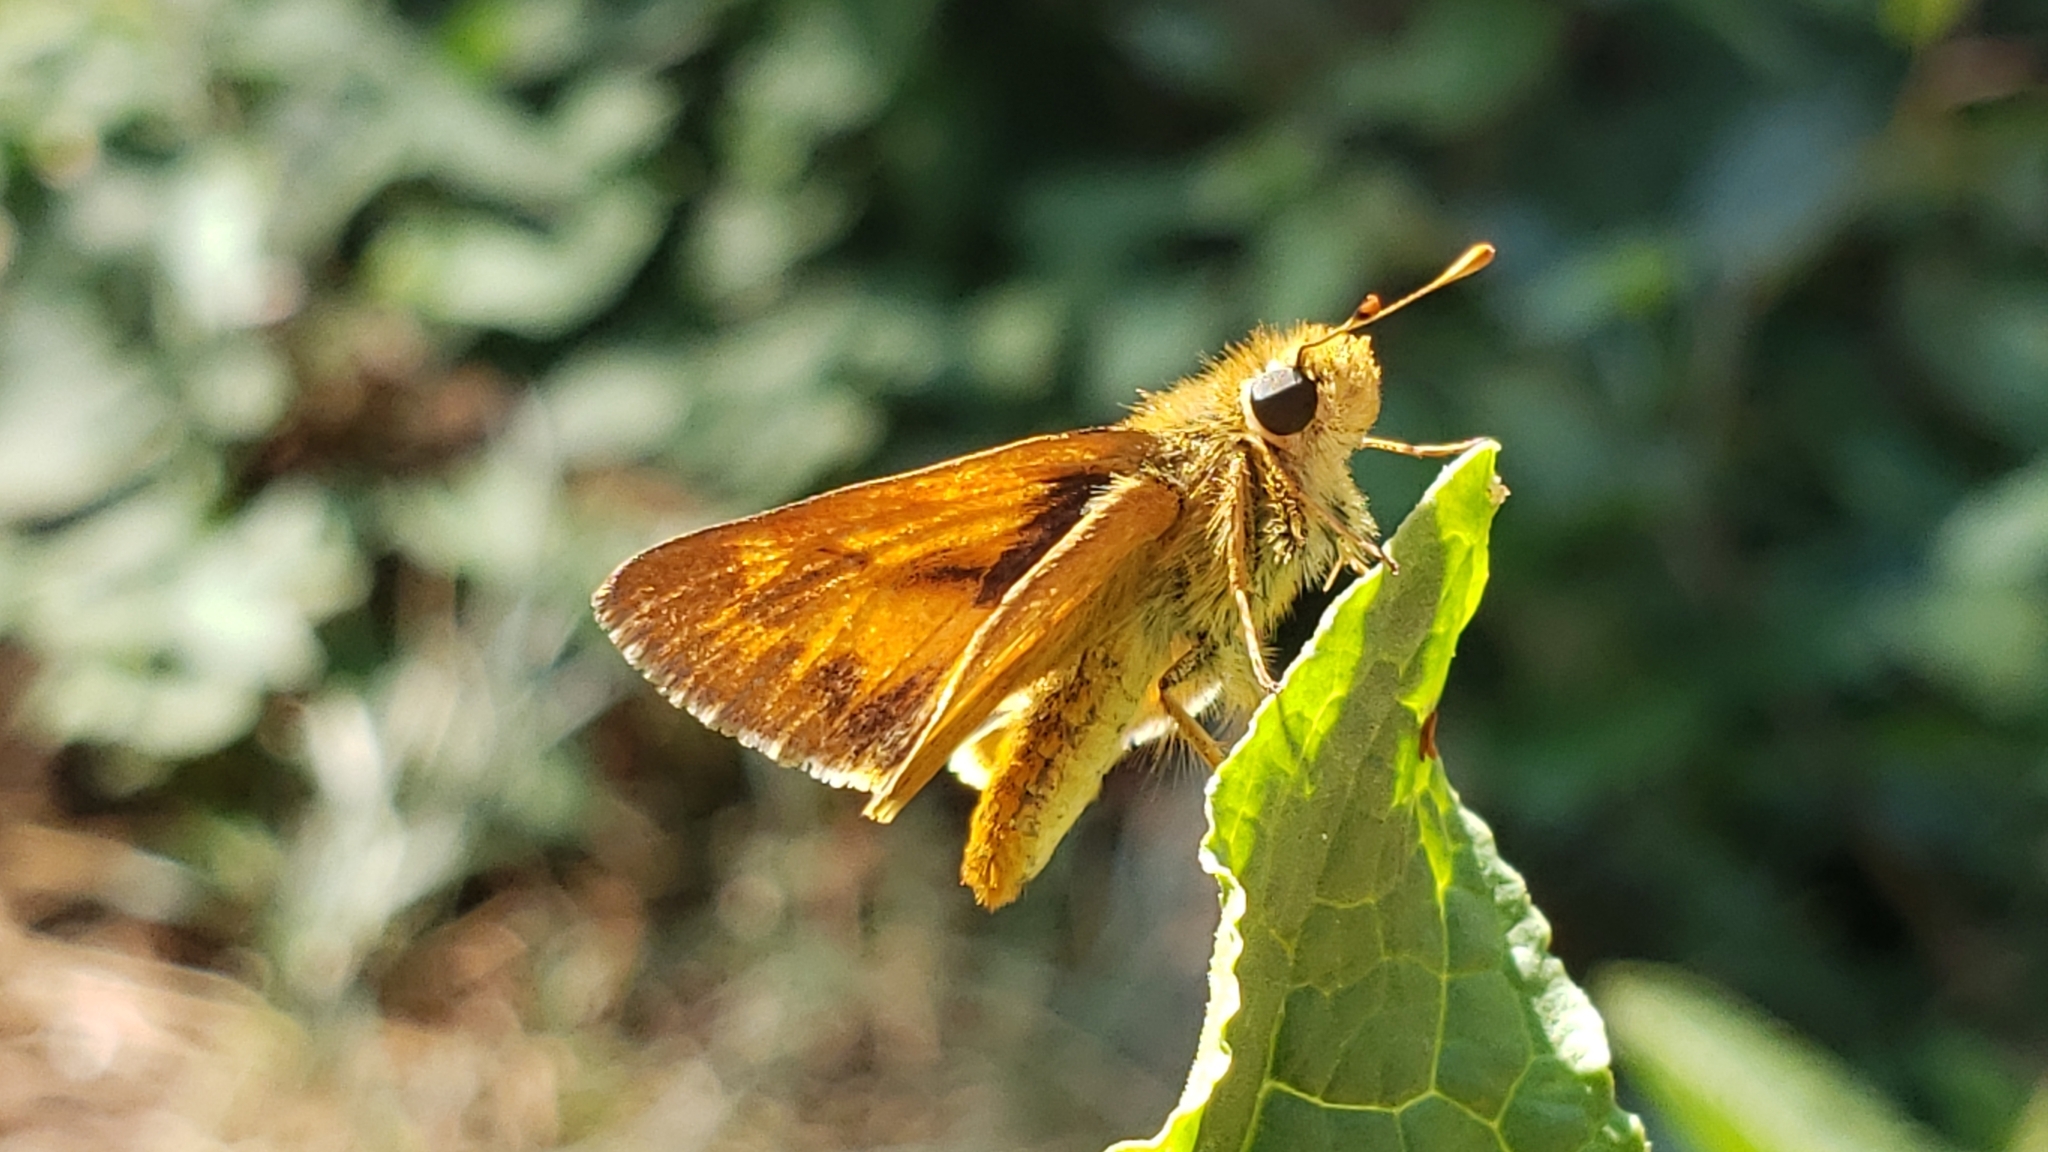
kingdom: Animalia
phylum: Arthropoda
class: Insecta
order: Lepidoptera
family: Hesperiidae
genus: Ochlodes
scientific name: Ochlodes sylvanoides
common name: Woodland skipper
